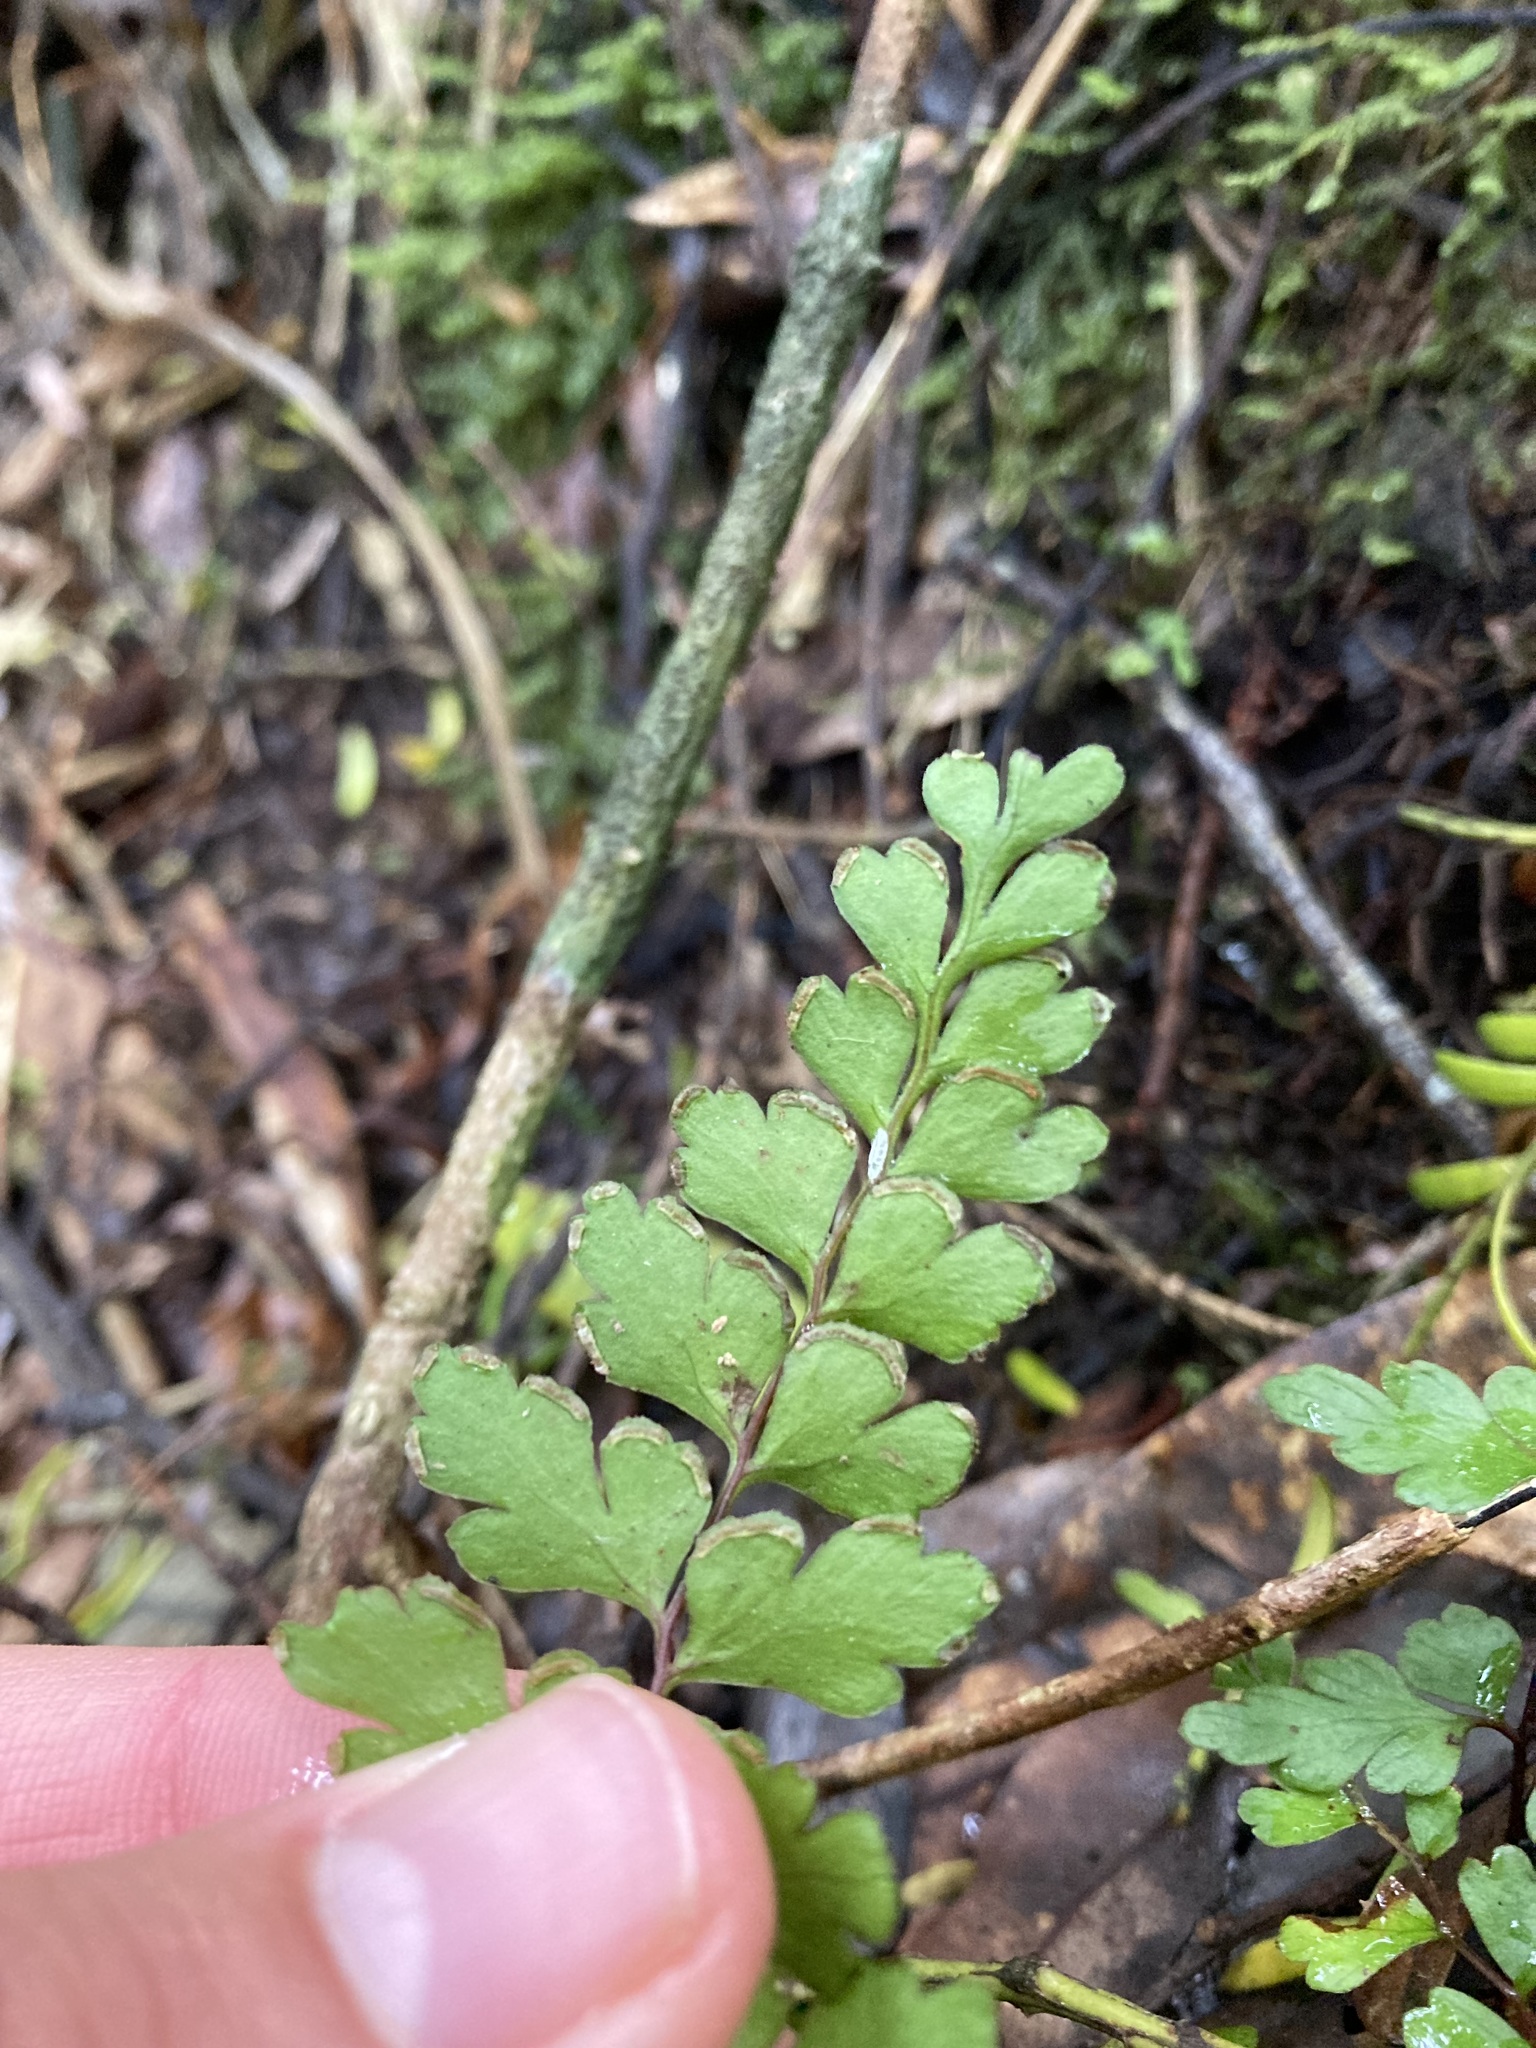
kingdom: Plantae
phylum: Tracheophyta
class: Polypodiopsida
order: Polypodiales
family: Lindsaeaceae
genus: Lindsaea
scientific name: Lindsaea trichomanoides
